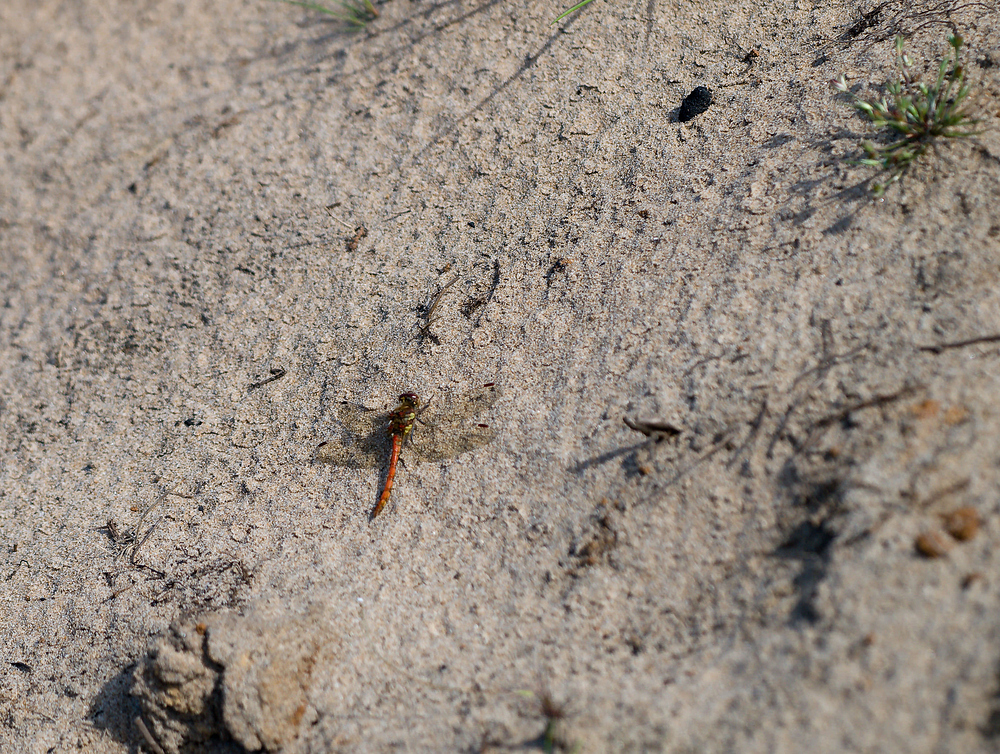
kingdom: Animalia
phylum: Arthropoda
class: Insecta
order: Odonata
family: Libellulidae
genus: Sympetrum
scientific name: Sympetrum striolatum
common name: Common darter
